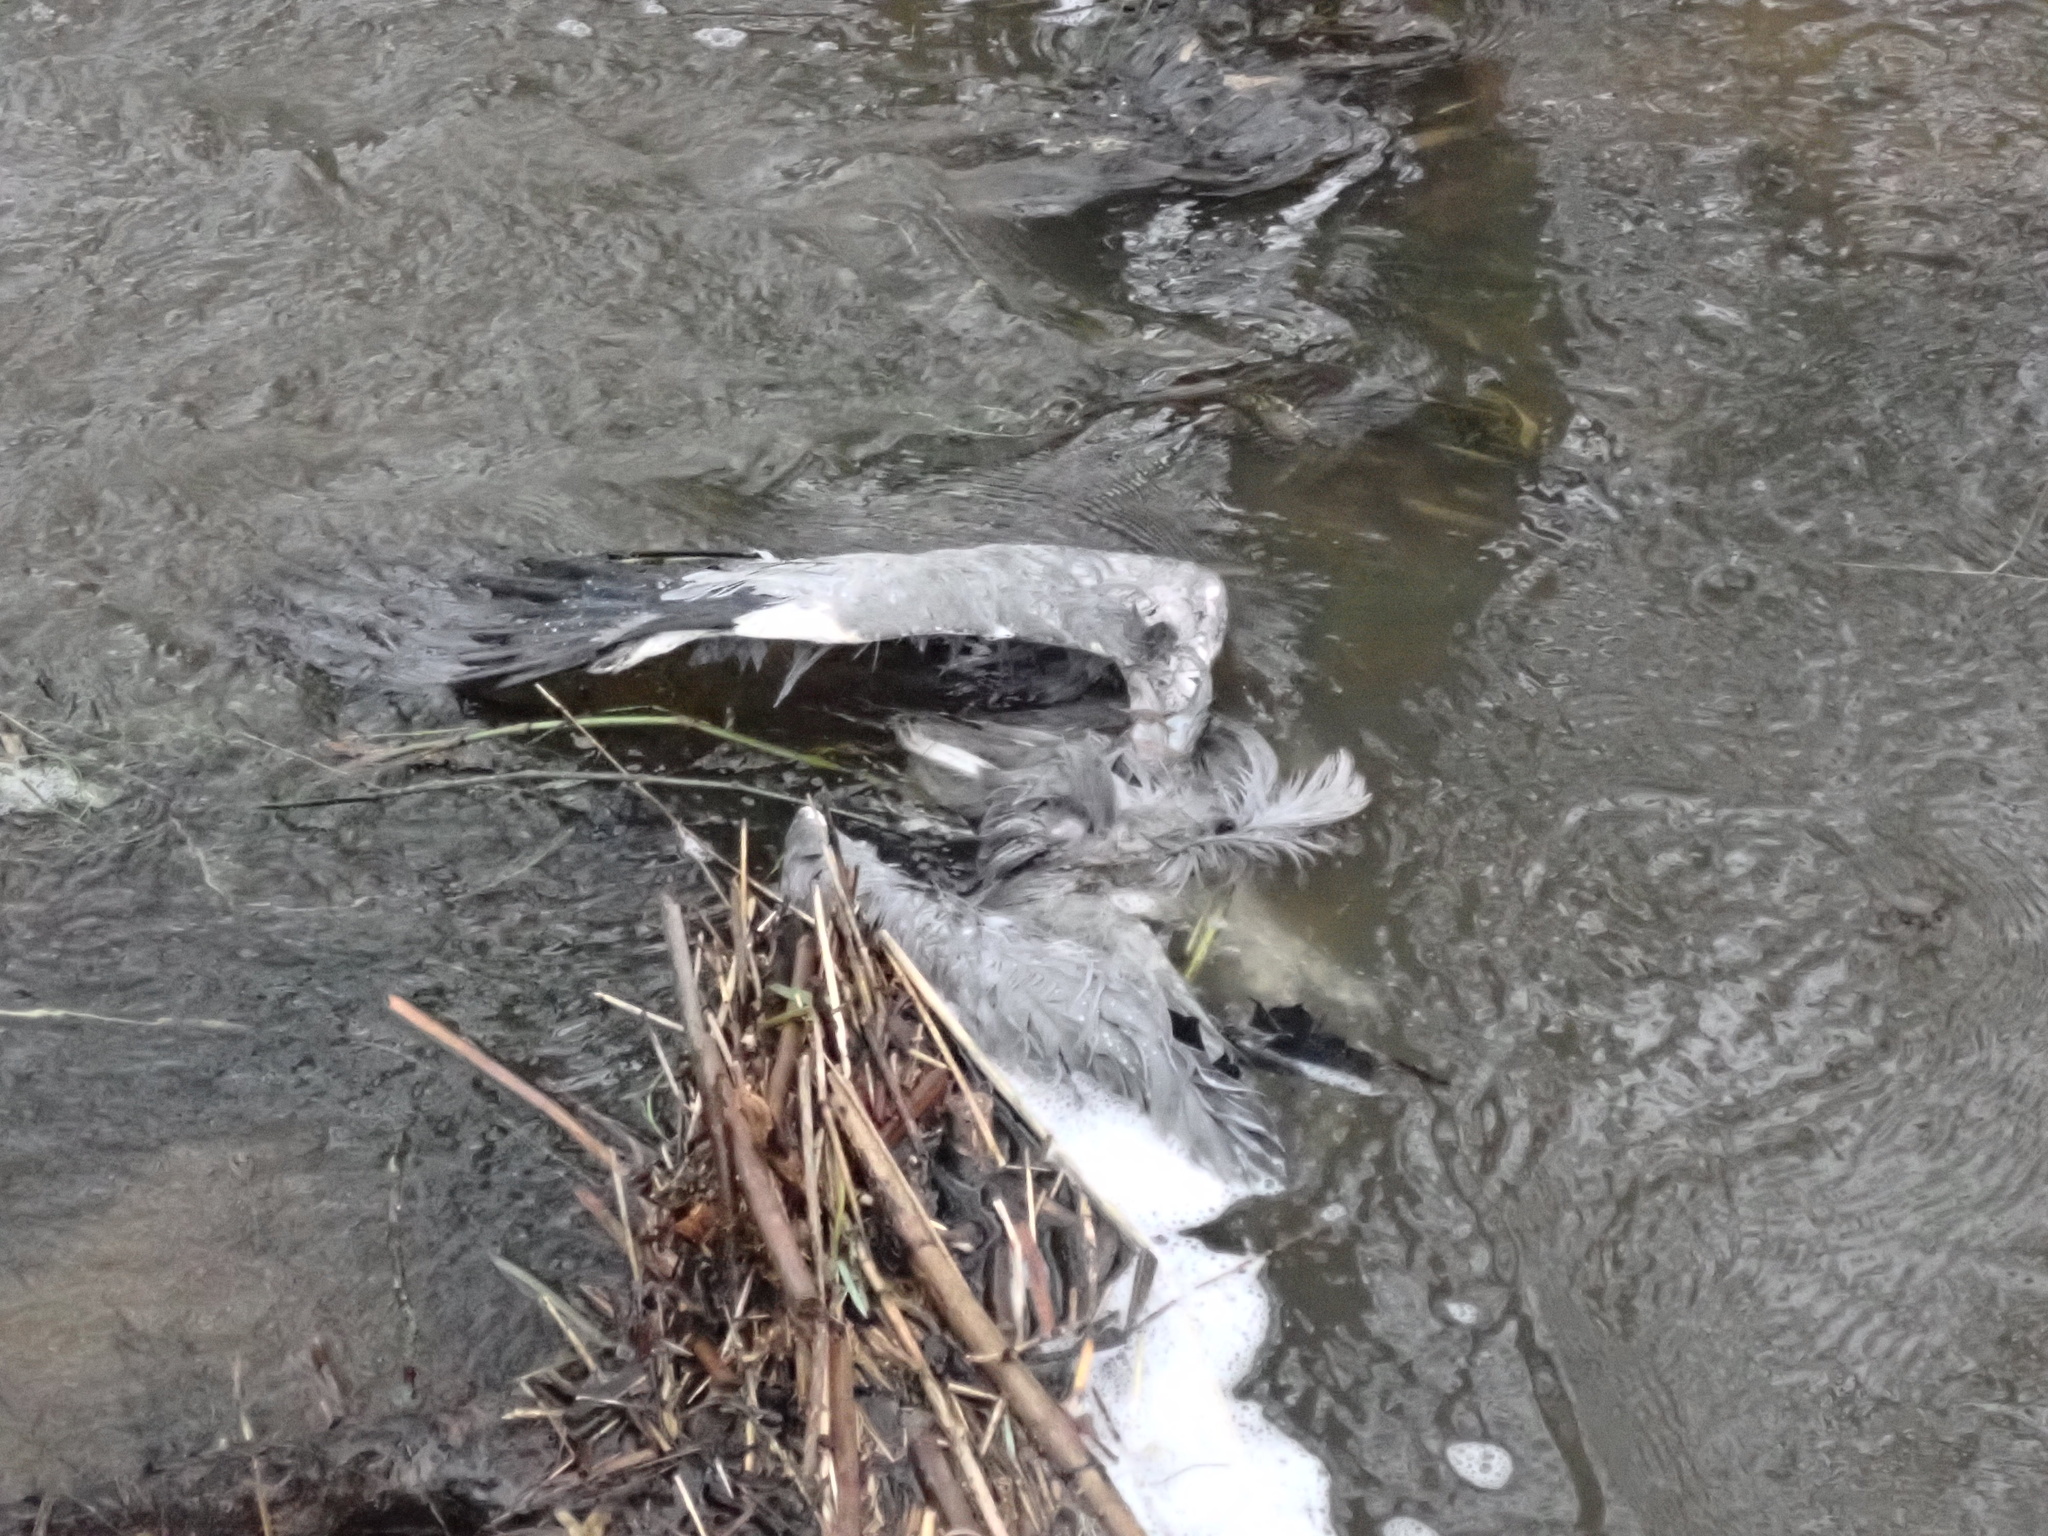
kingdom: Animalia
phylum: Chordata
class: Aves
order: Pelecaniformes
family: Ardeidae
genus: Ardea
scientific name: Ardea cinerea
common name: Grey heron
